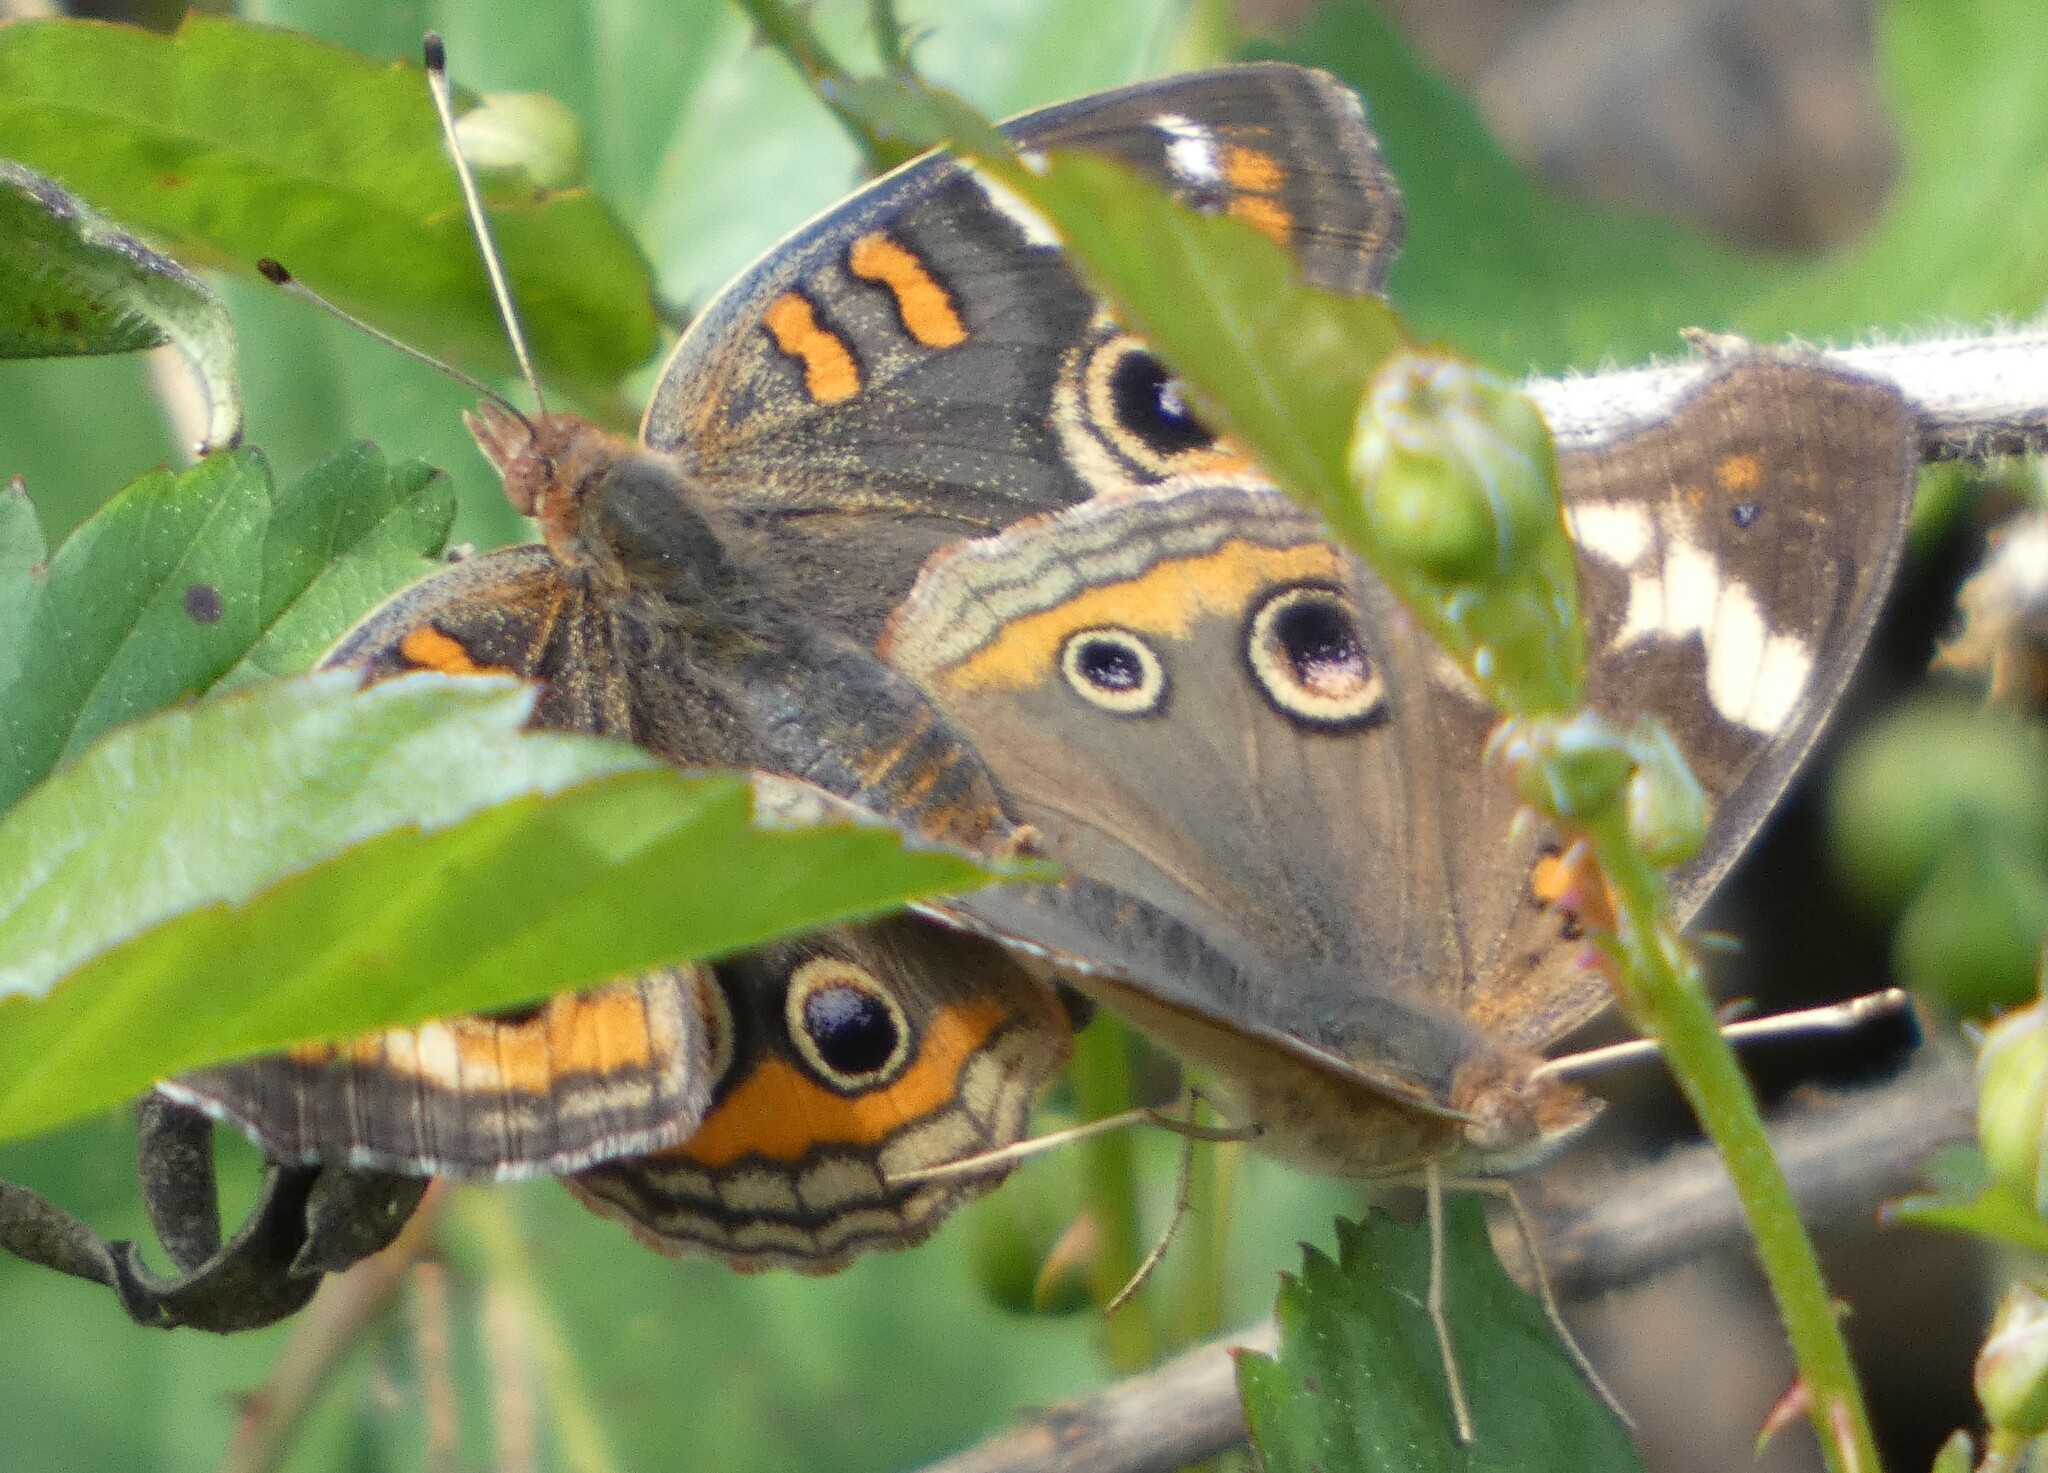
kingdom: Animalia
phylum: Arthropoda
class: Insecta
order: Lepidoptera
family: Nymphalidae
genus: Junonia
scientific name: Junonia coenia
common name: Common buckeye
